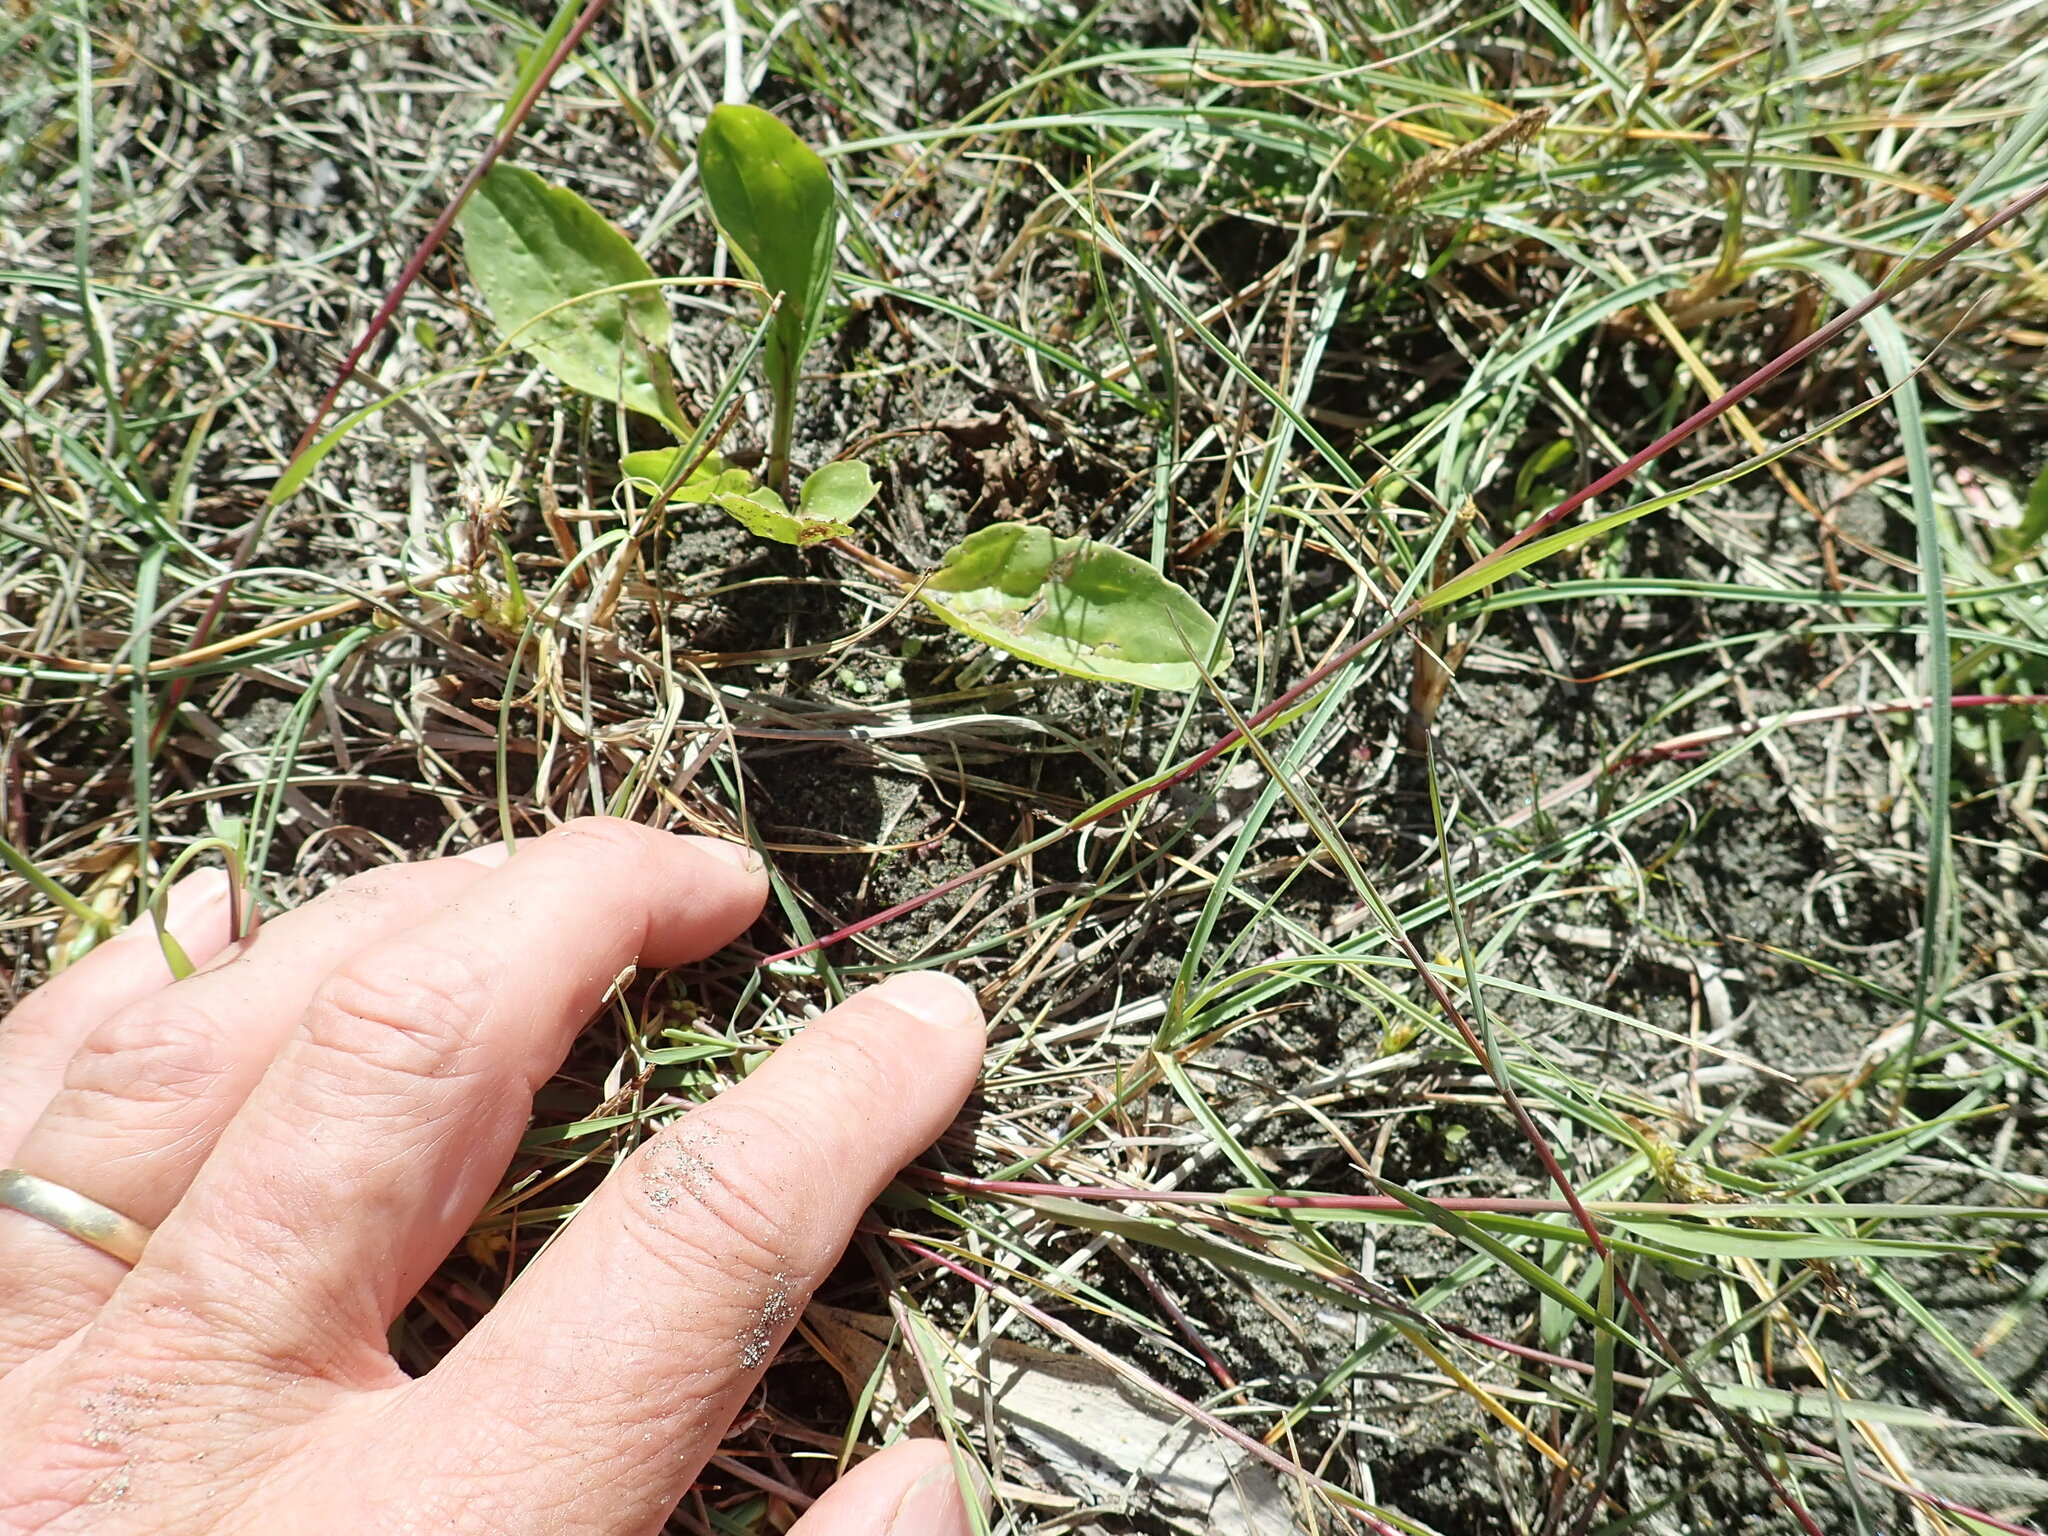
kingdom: Plantae
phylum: Tracheophyta
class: Magnoliopsida
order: Lamiales
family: Plantaginaceae
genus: Plantago
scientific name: Plantago major
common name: Common plantain
